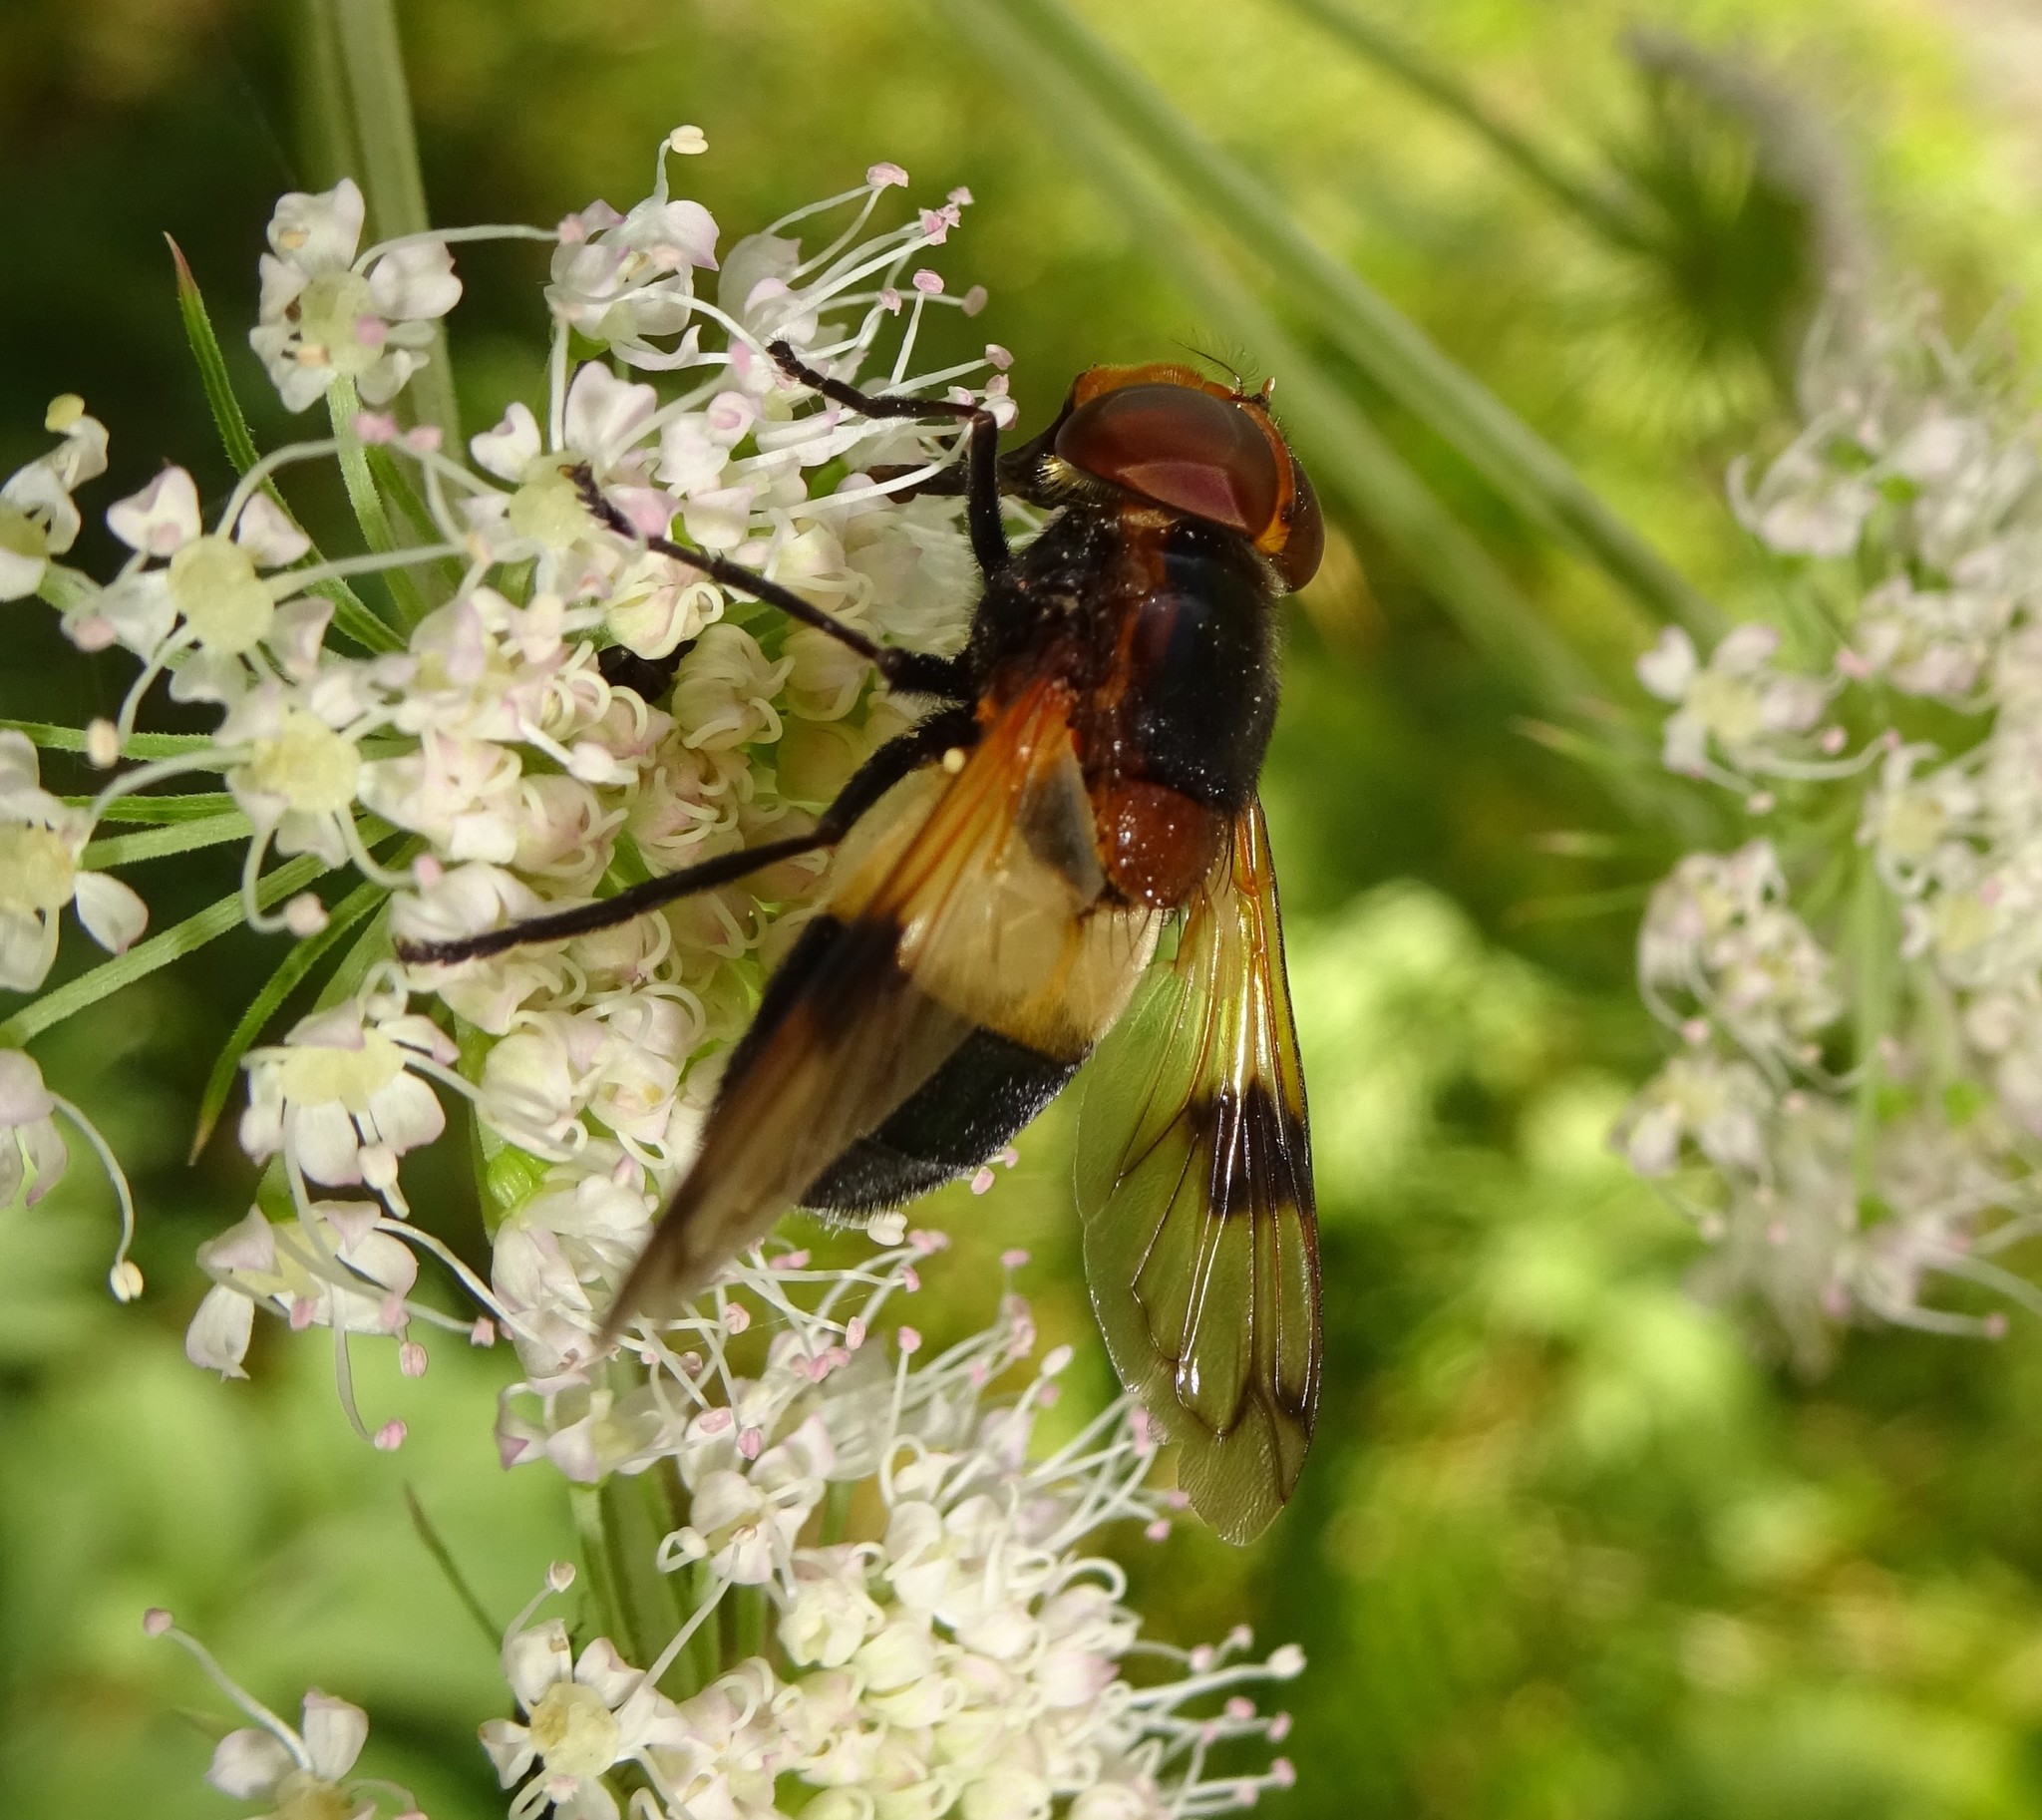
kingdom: Animalia
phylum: Arthropoda
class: Insecta
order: Diptera
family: Syrphidae
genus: Volucella
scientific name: Volucella pellucens
